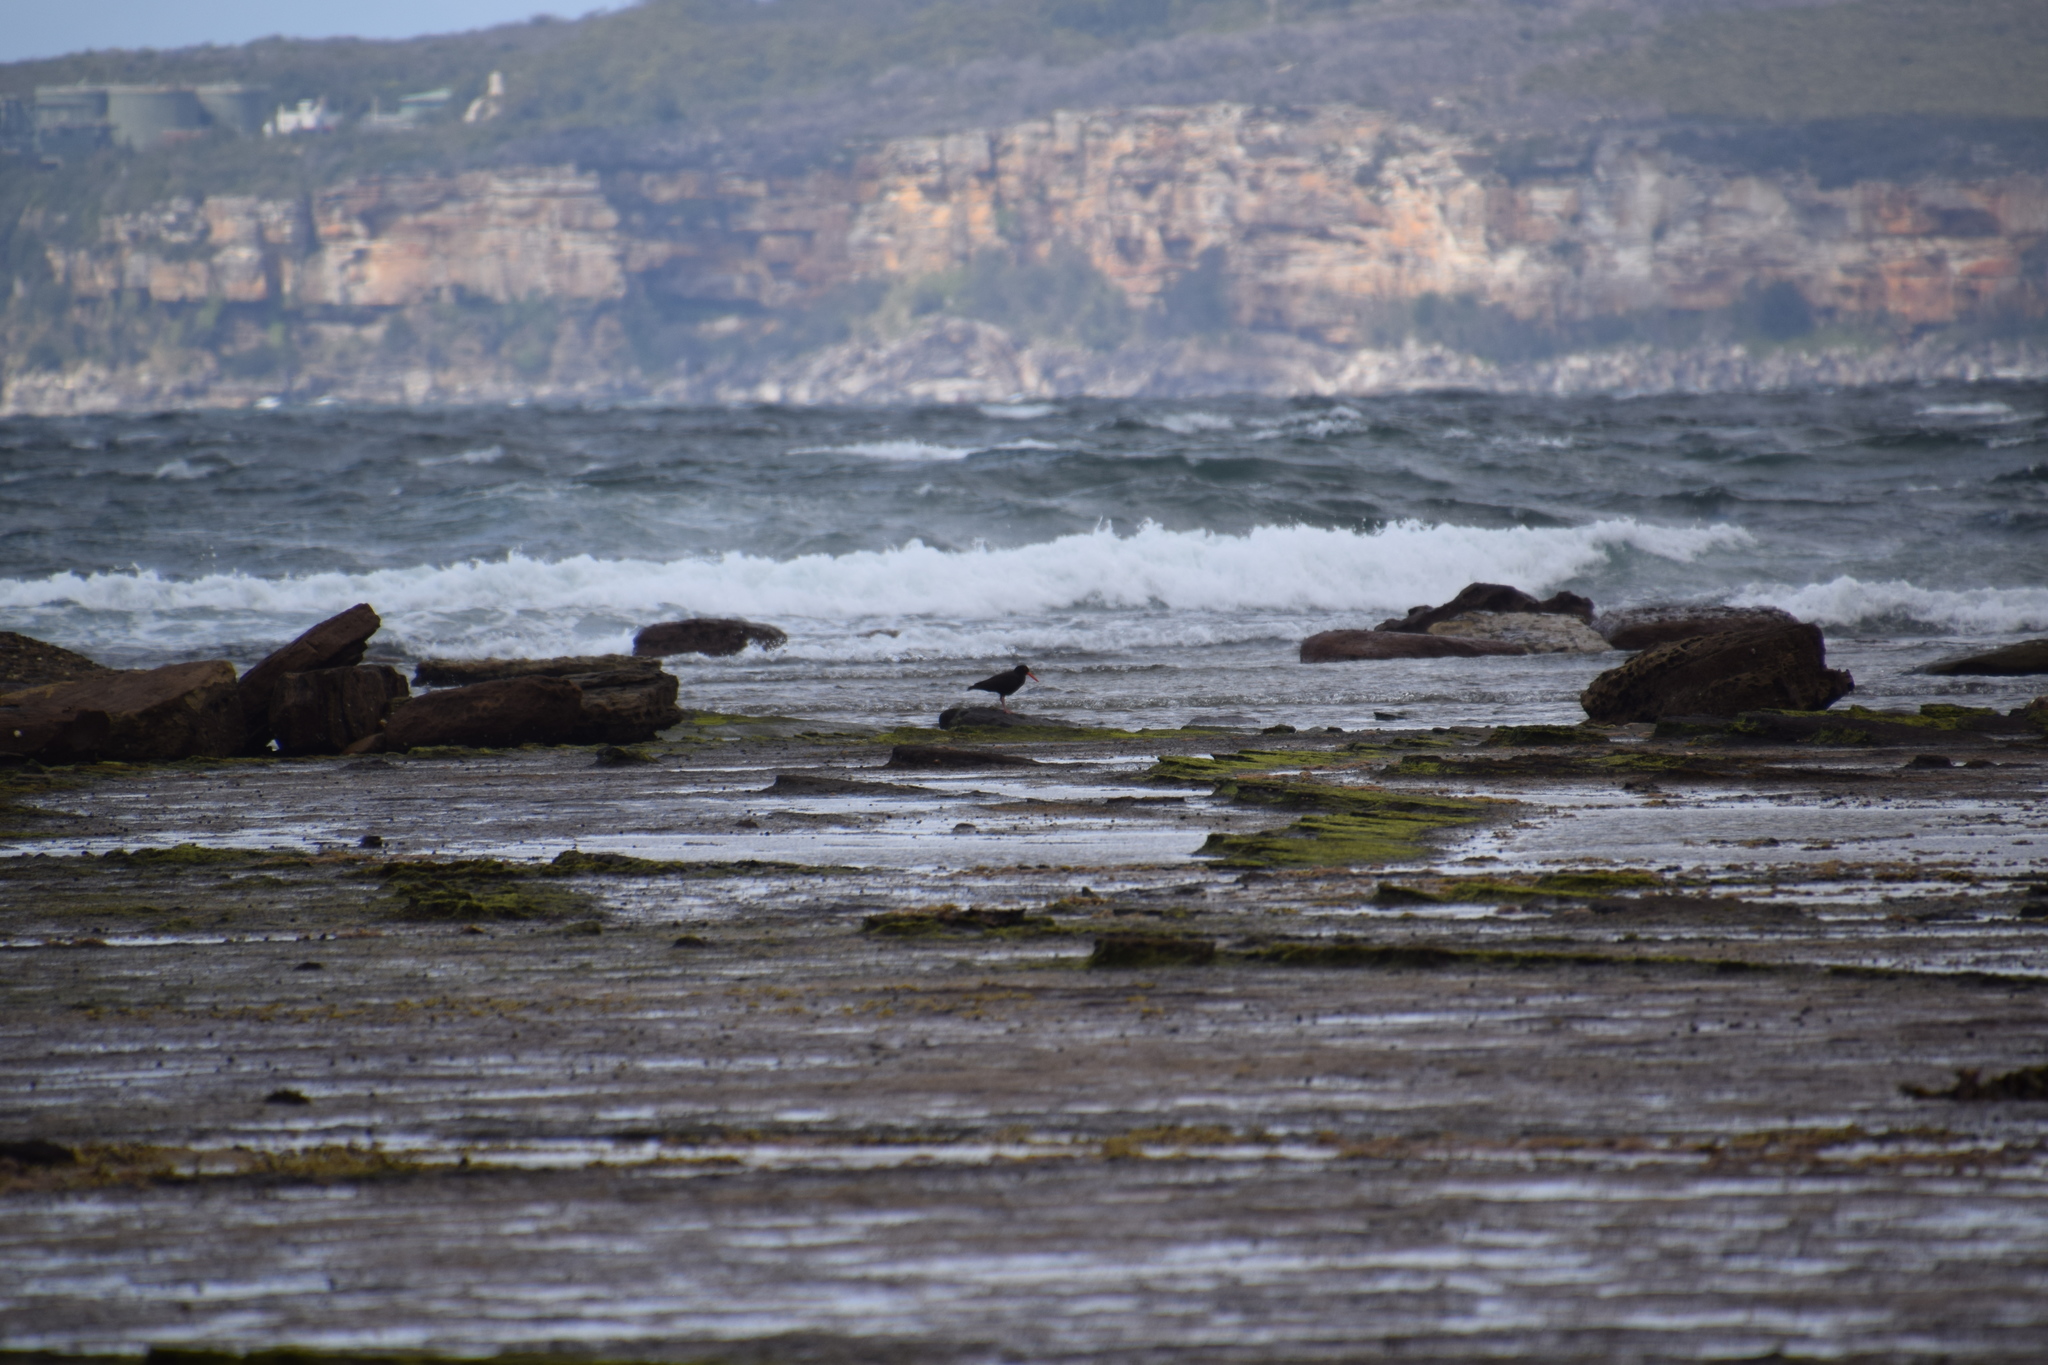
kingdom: Animalia
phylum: Chordata
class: Aves
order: Charadriiformes
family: Haematopodidae
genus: Haematopus
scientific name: Haematopus fuliginosus
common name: Sooty oystercatcher
